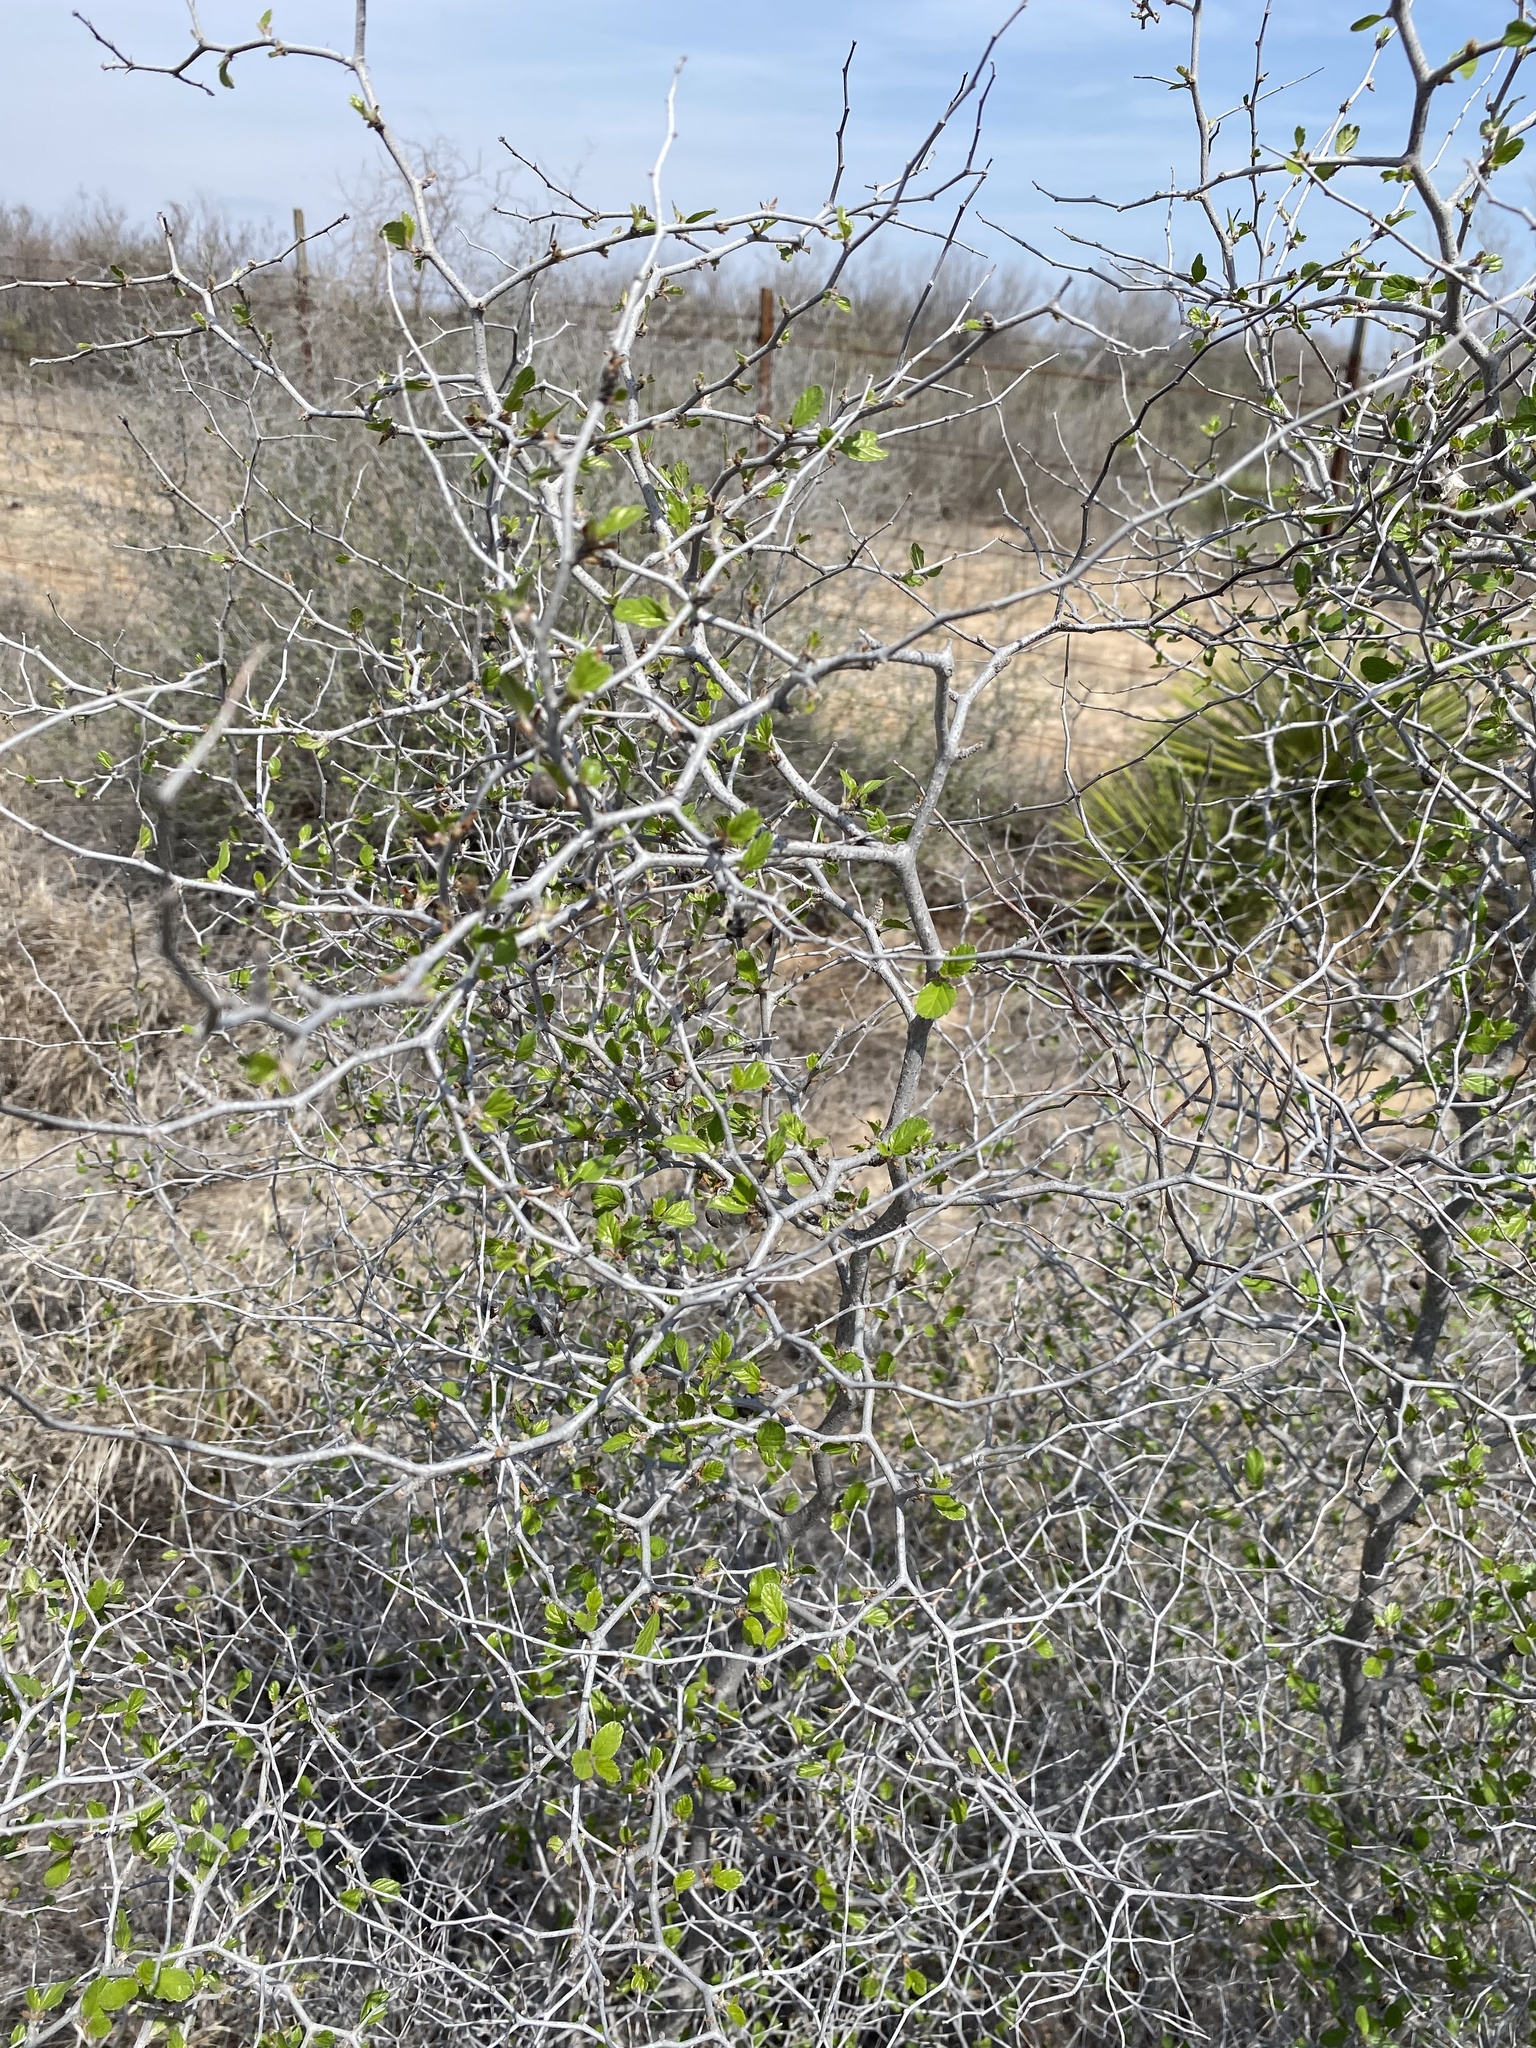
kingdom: Plantae
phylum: Tracheophyta
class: Magnoliopsida
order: Rosales
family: Rhamnaceae
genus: Colubrina
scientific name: Colubrina texensis
